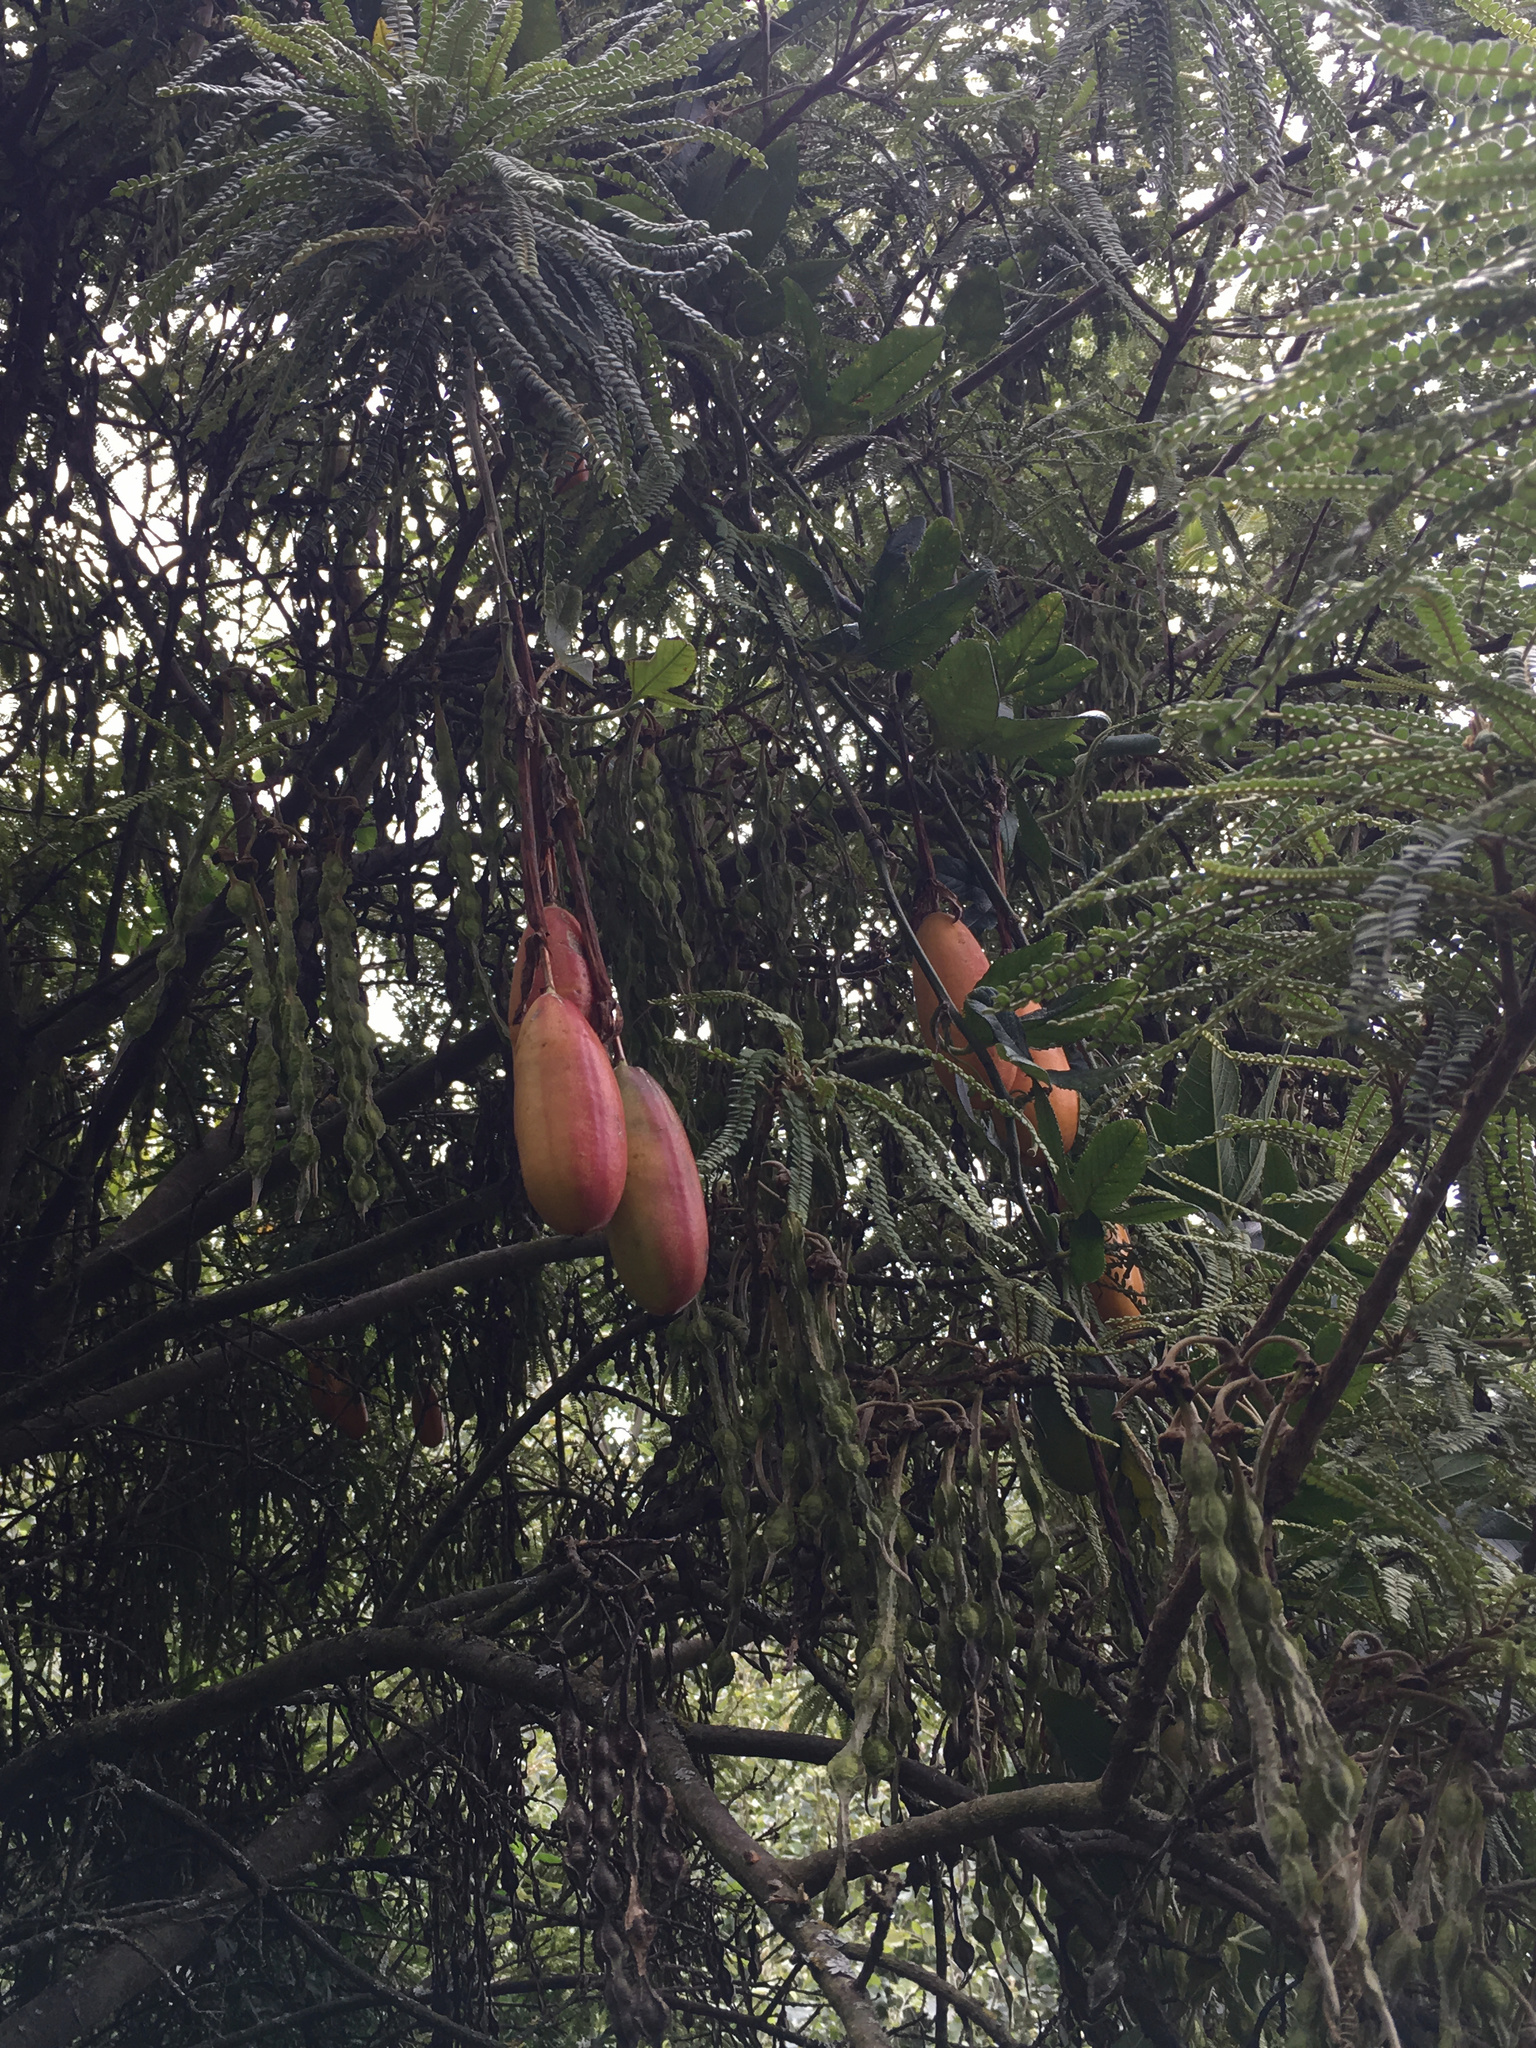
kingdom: Plantae
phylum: Tracheophyta
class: Magnoliopsida
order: Malpighiales
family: Passifloraceae
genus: Passiflora
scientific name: Passiflora tripartita
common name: Banana poka
